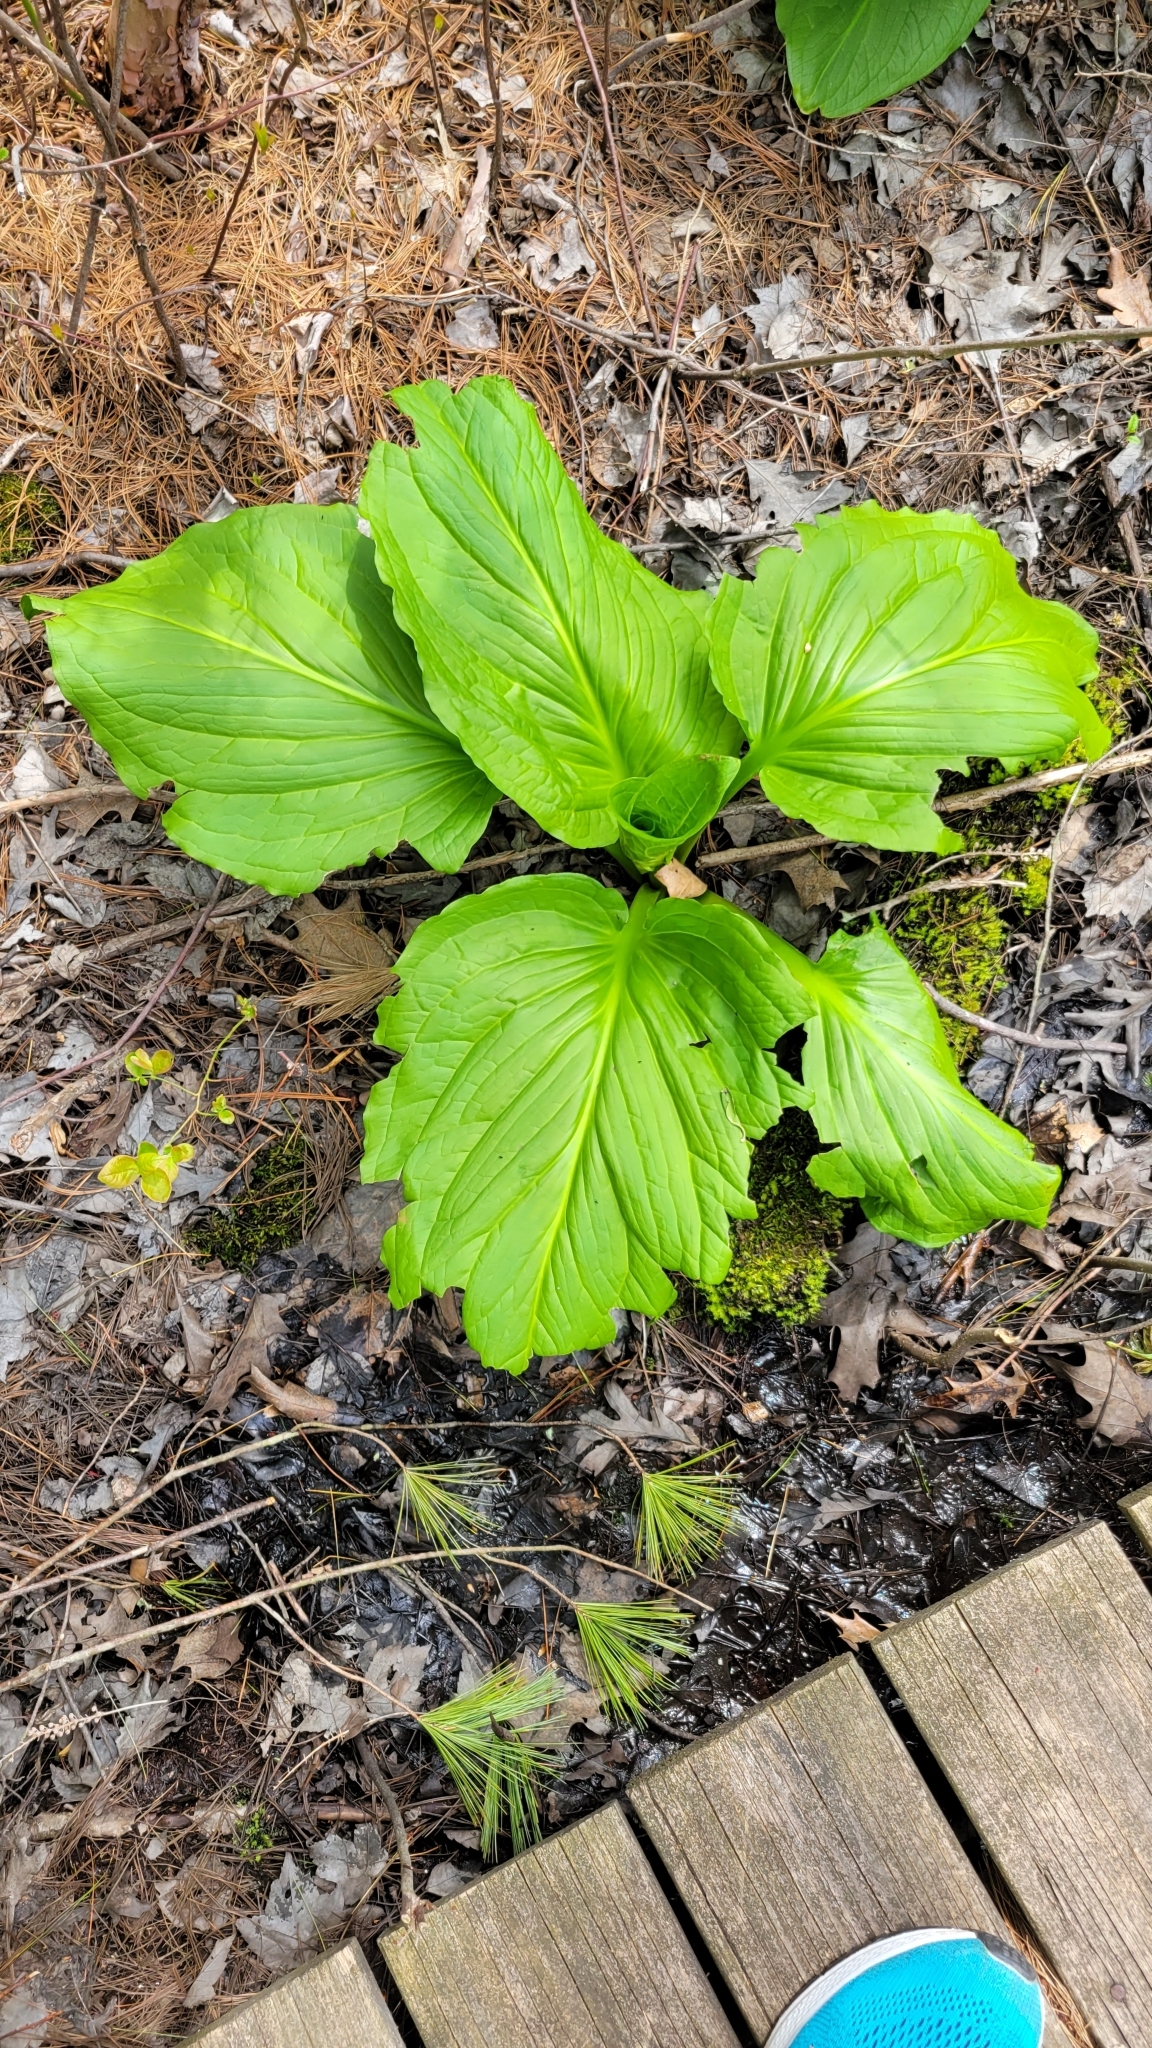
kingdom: Plantae
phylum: Tracheophyta
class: Liliopsida
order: Alismatales
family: Araceae
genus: Symplocarpus
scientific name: Symplocarpus foetidus
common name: Eastern skunk cabbage
